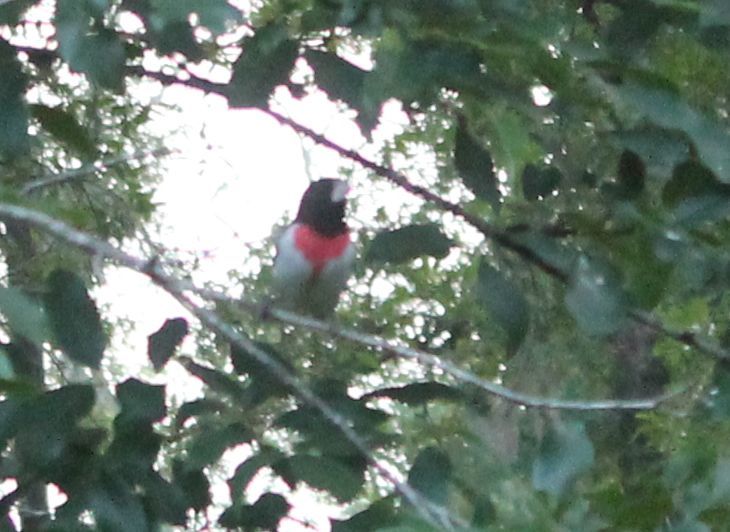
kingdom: Animalia
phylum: Chordata
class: Aves
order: Passeriformes
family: Cardinalidae
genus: Pheucticus
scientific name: Pheucticus ludovicianus
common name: Rose-breasted grosbeak
